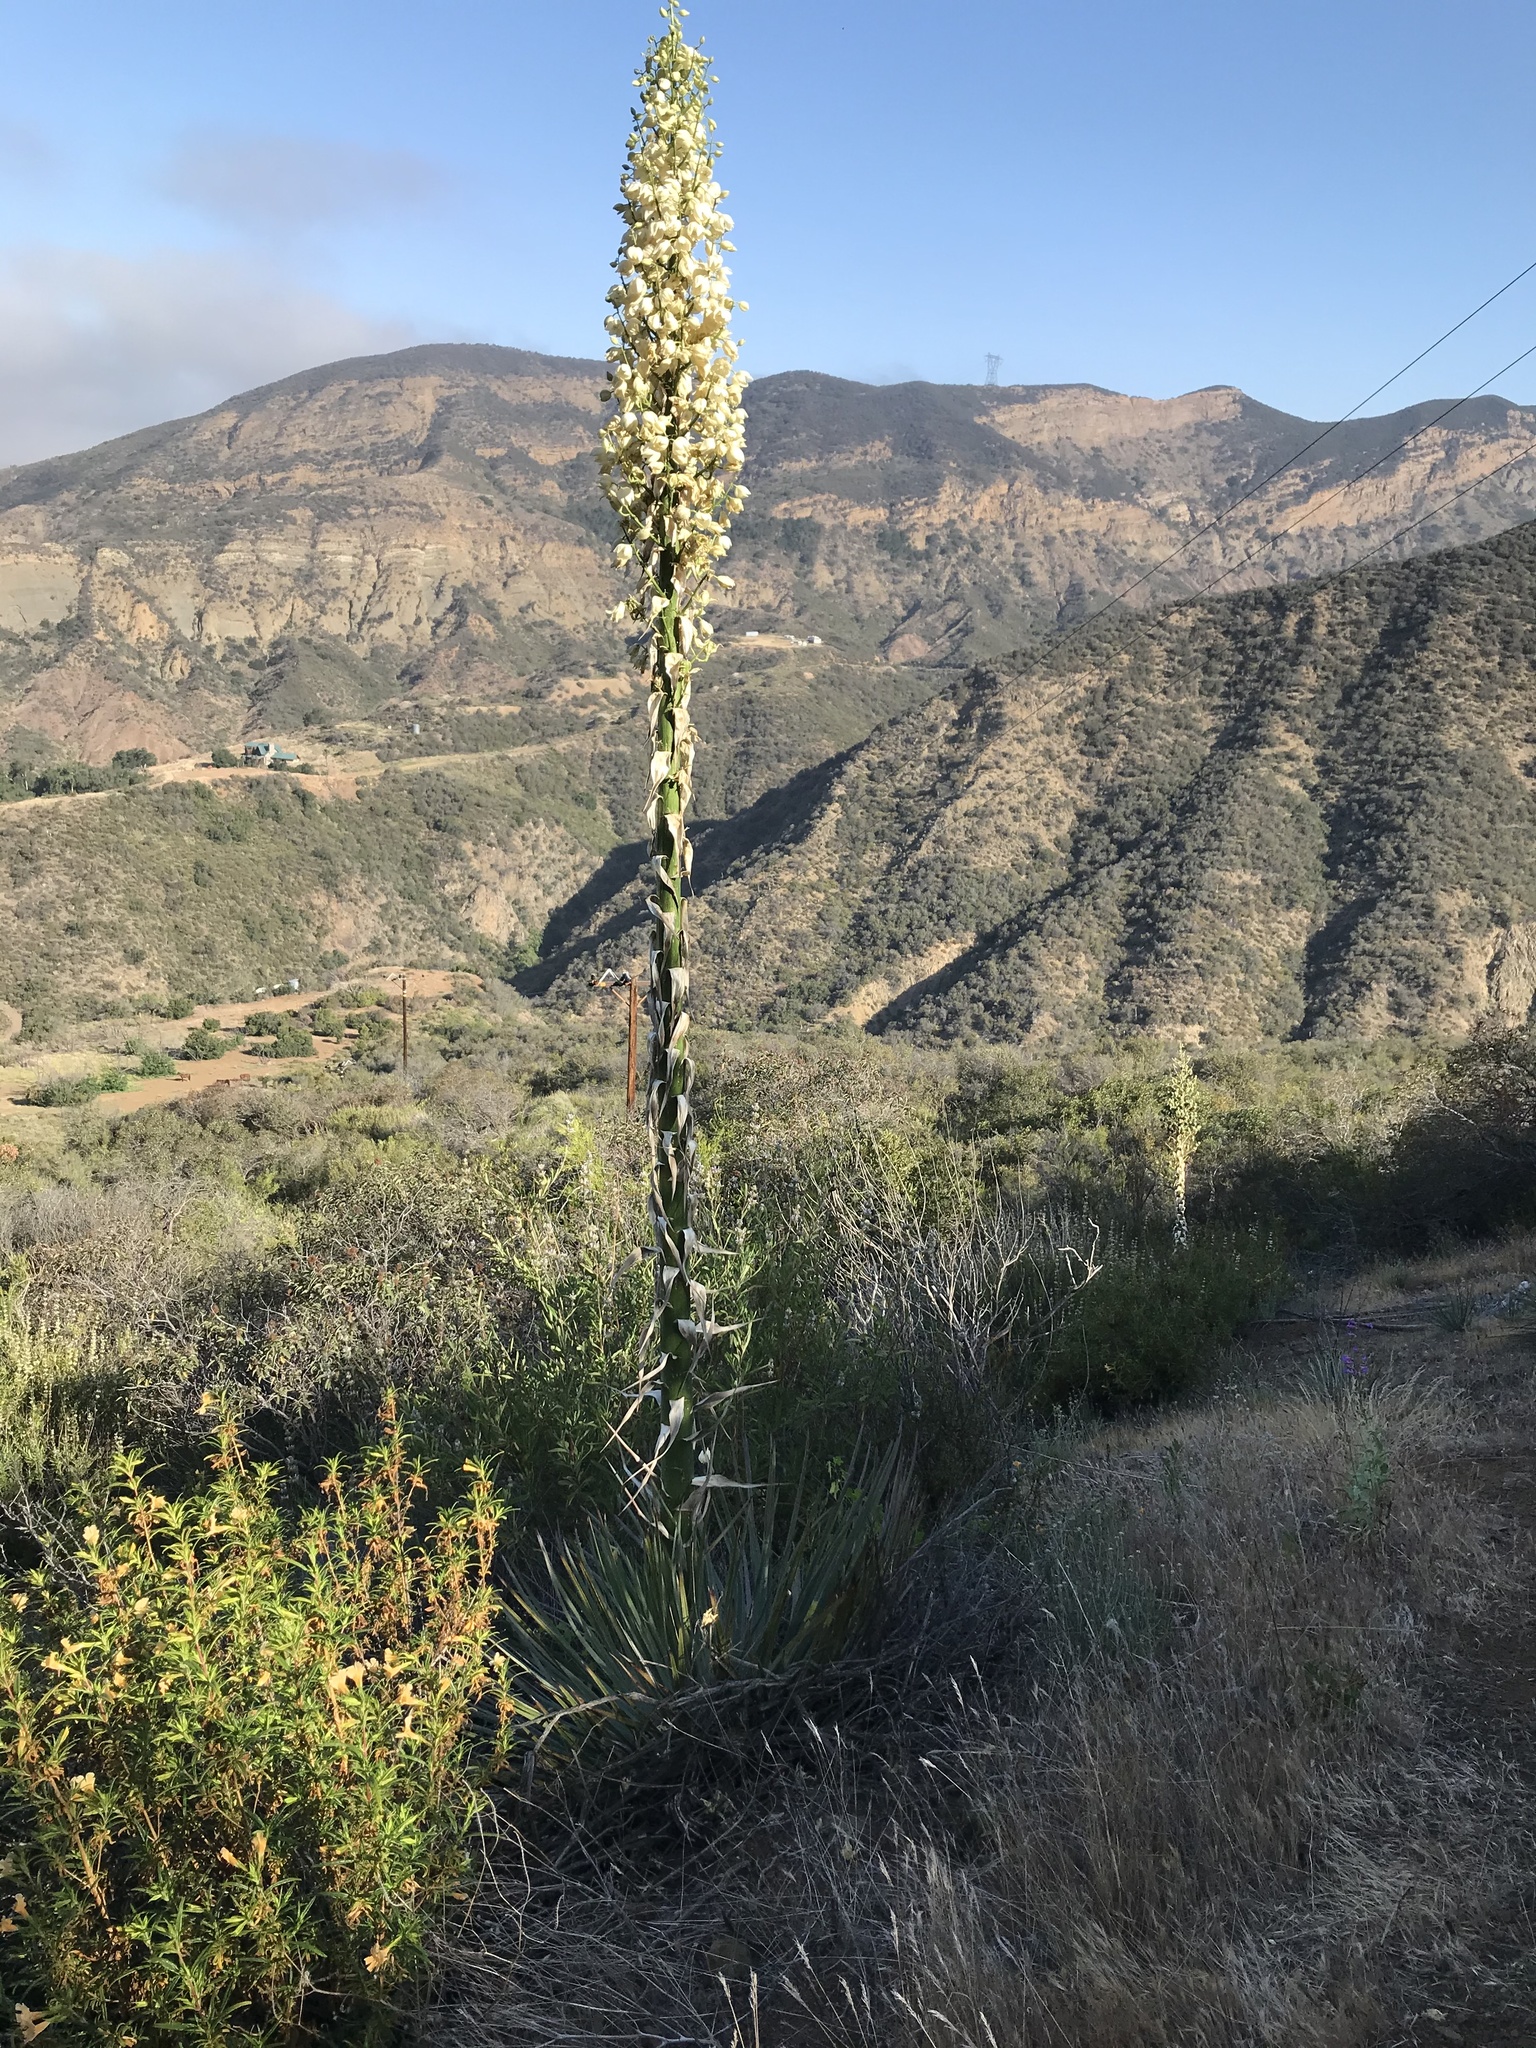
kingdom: Plantae
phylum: Tracheophyta
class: Liliopsida
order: Asparagales
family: Asparagaceae
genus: Hesperoyucca
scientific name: Hesperoyucca whipplei
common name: Our lord's-candle
